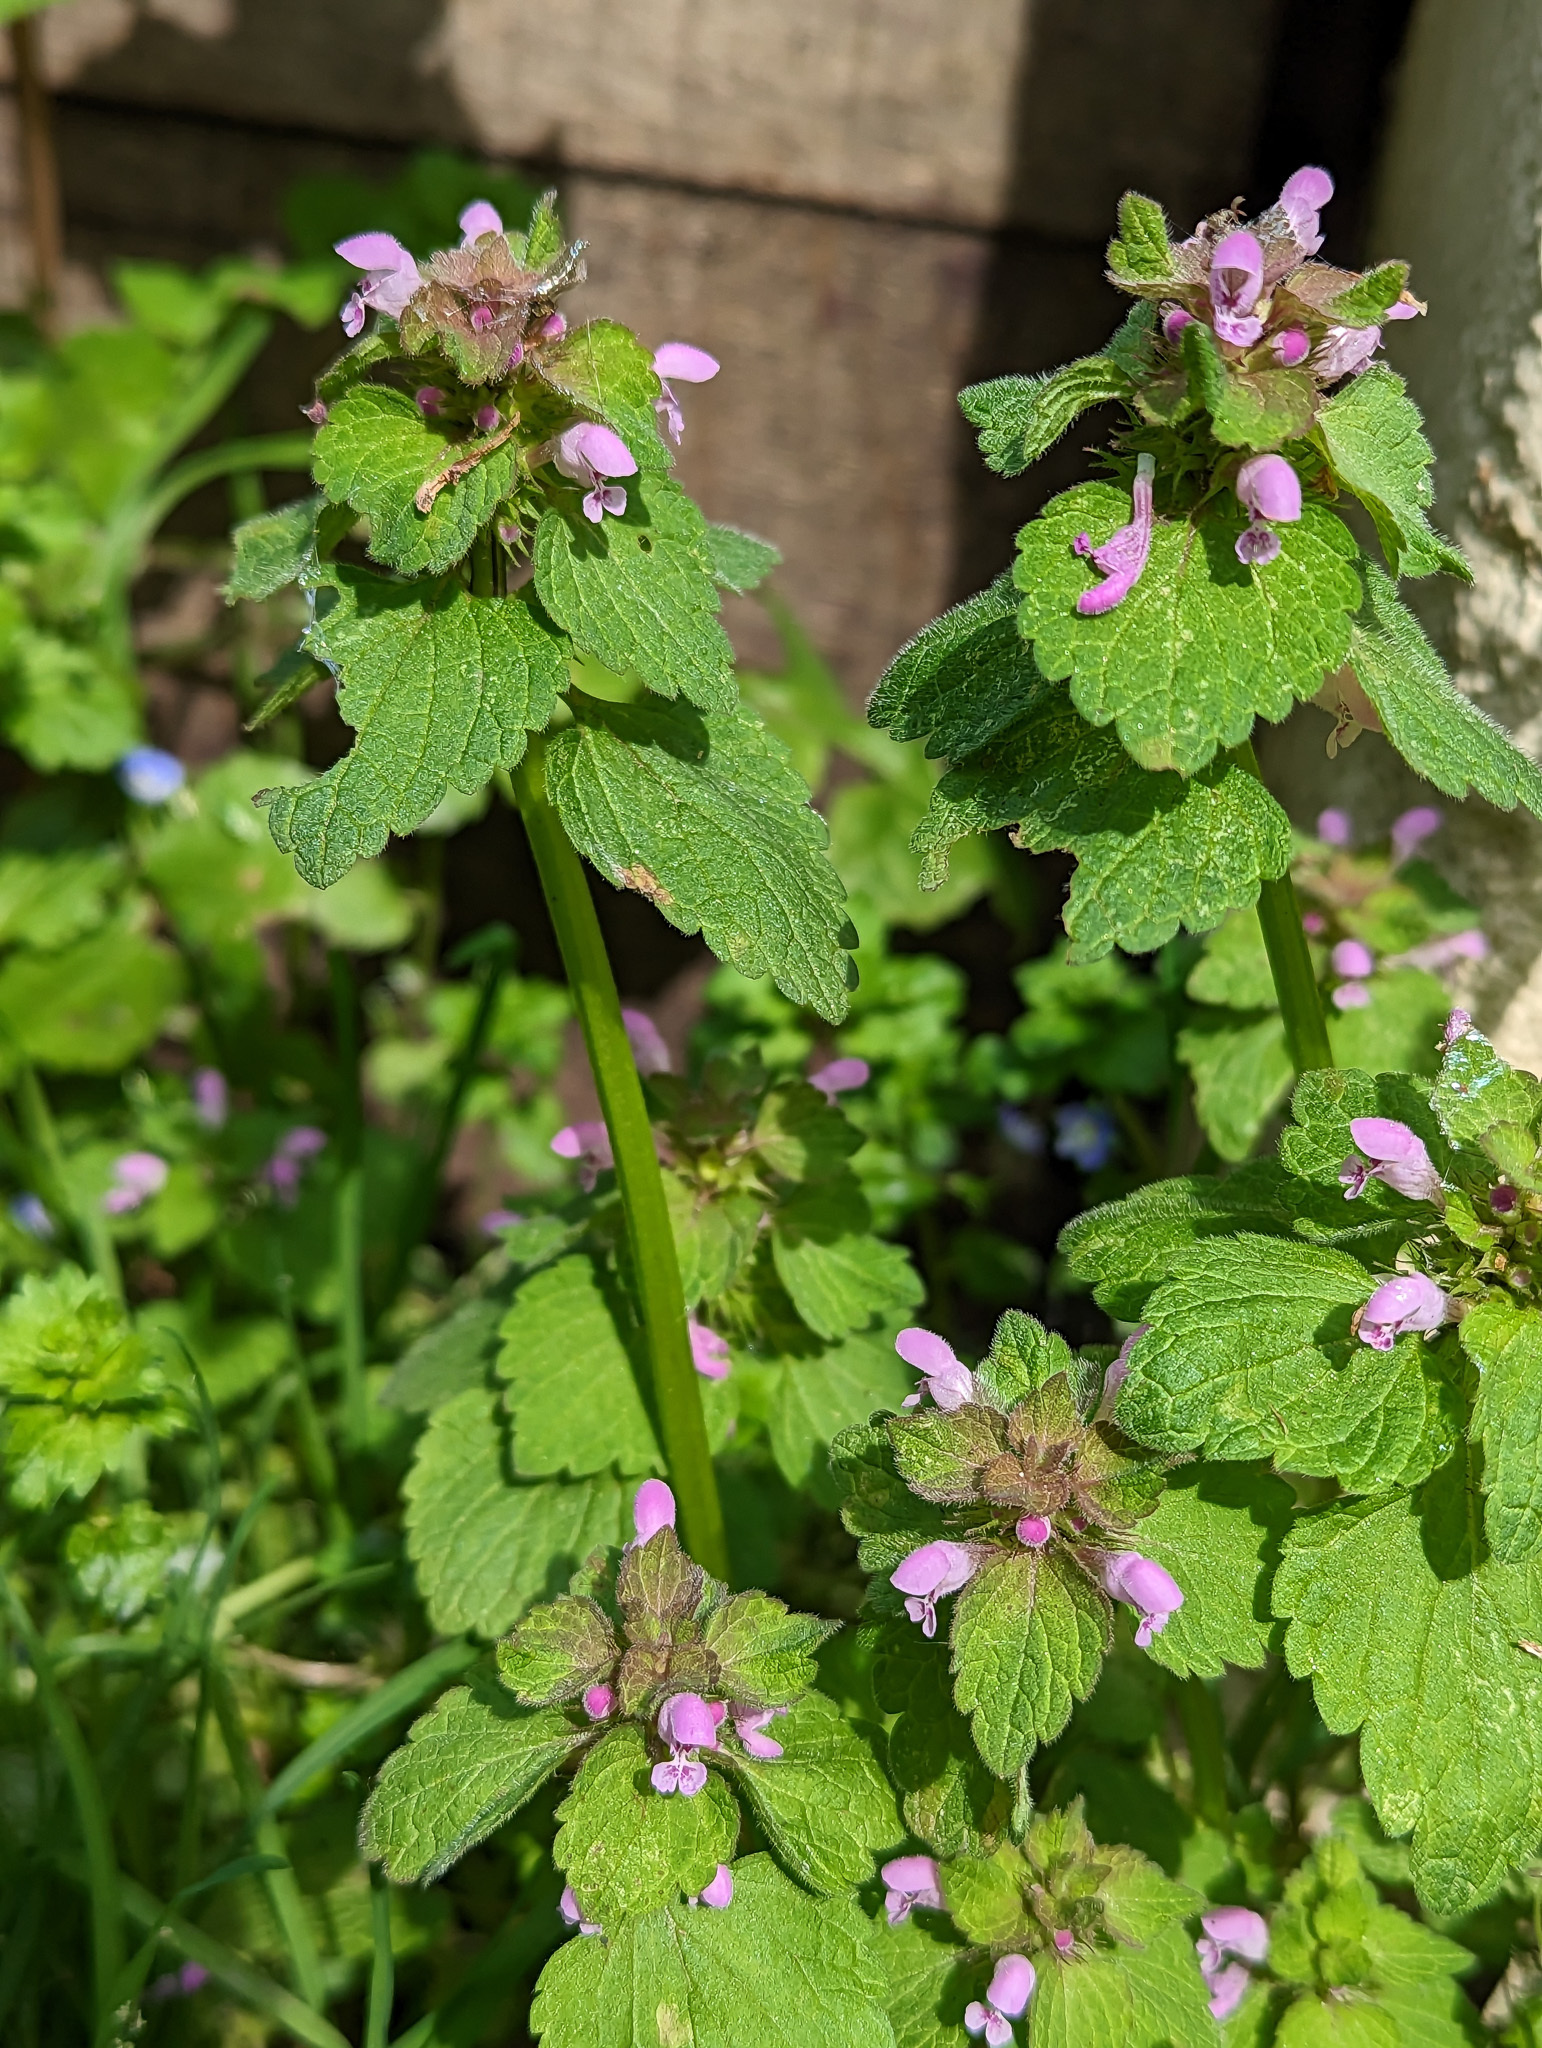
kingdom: Plantae
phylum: Tracheophyta
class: Magnoliopsida
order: Lamiales
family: Lamiaceae
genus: Lamium
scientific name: Lamium purpureum
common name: Red dead-nettle
